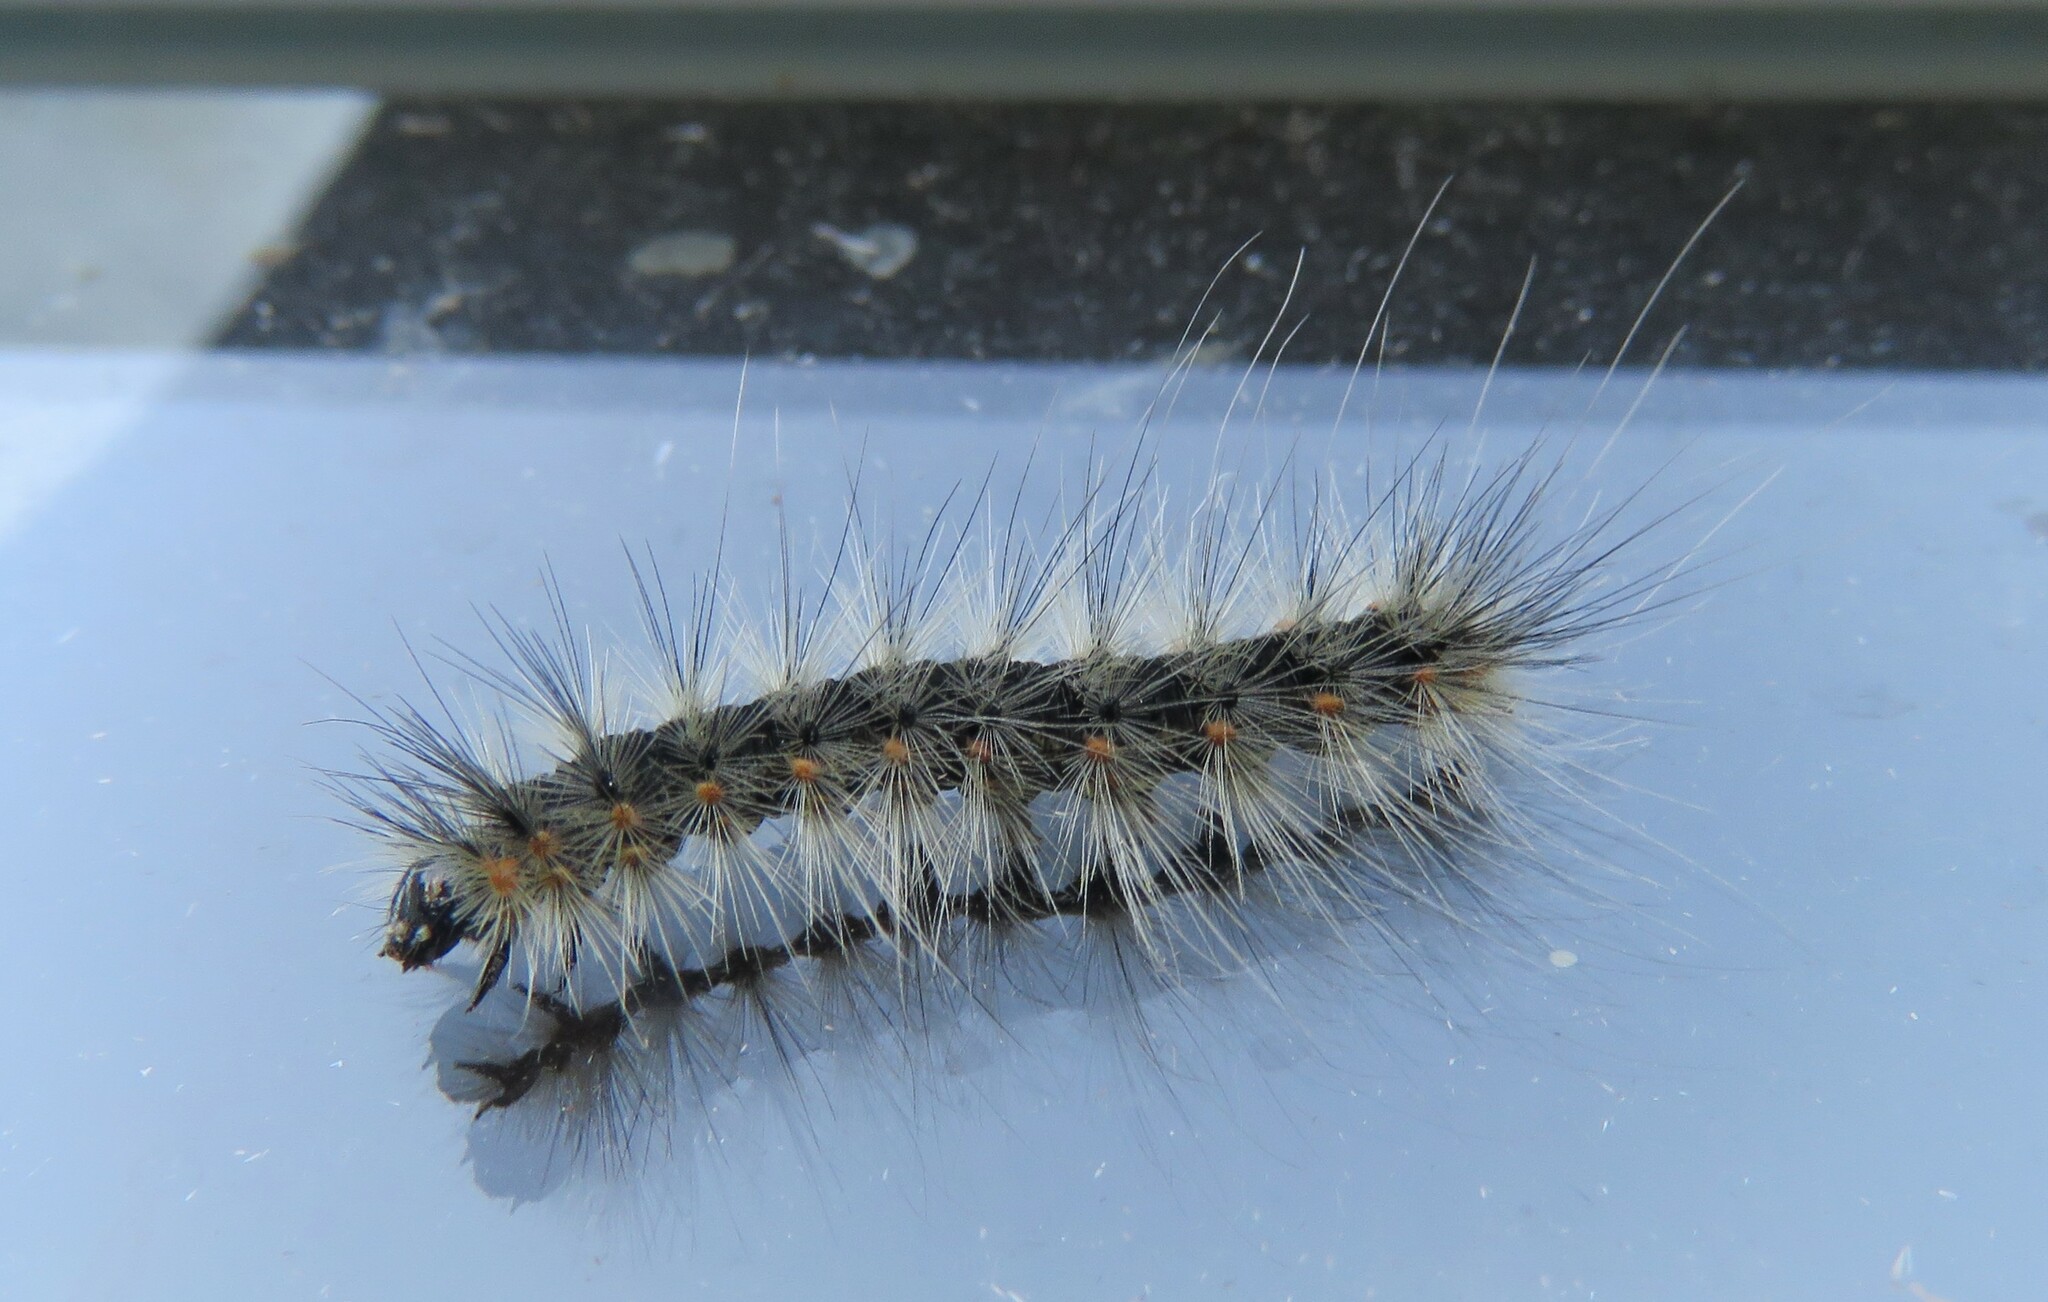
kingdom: Animalia
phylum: Arthropoda
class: Insecta
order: Lepidoptera
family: Erebidae
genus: Hyphantria
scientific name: Hyphantria cunea
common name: American white moth
